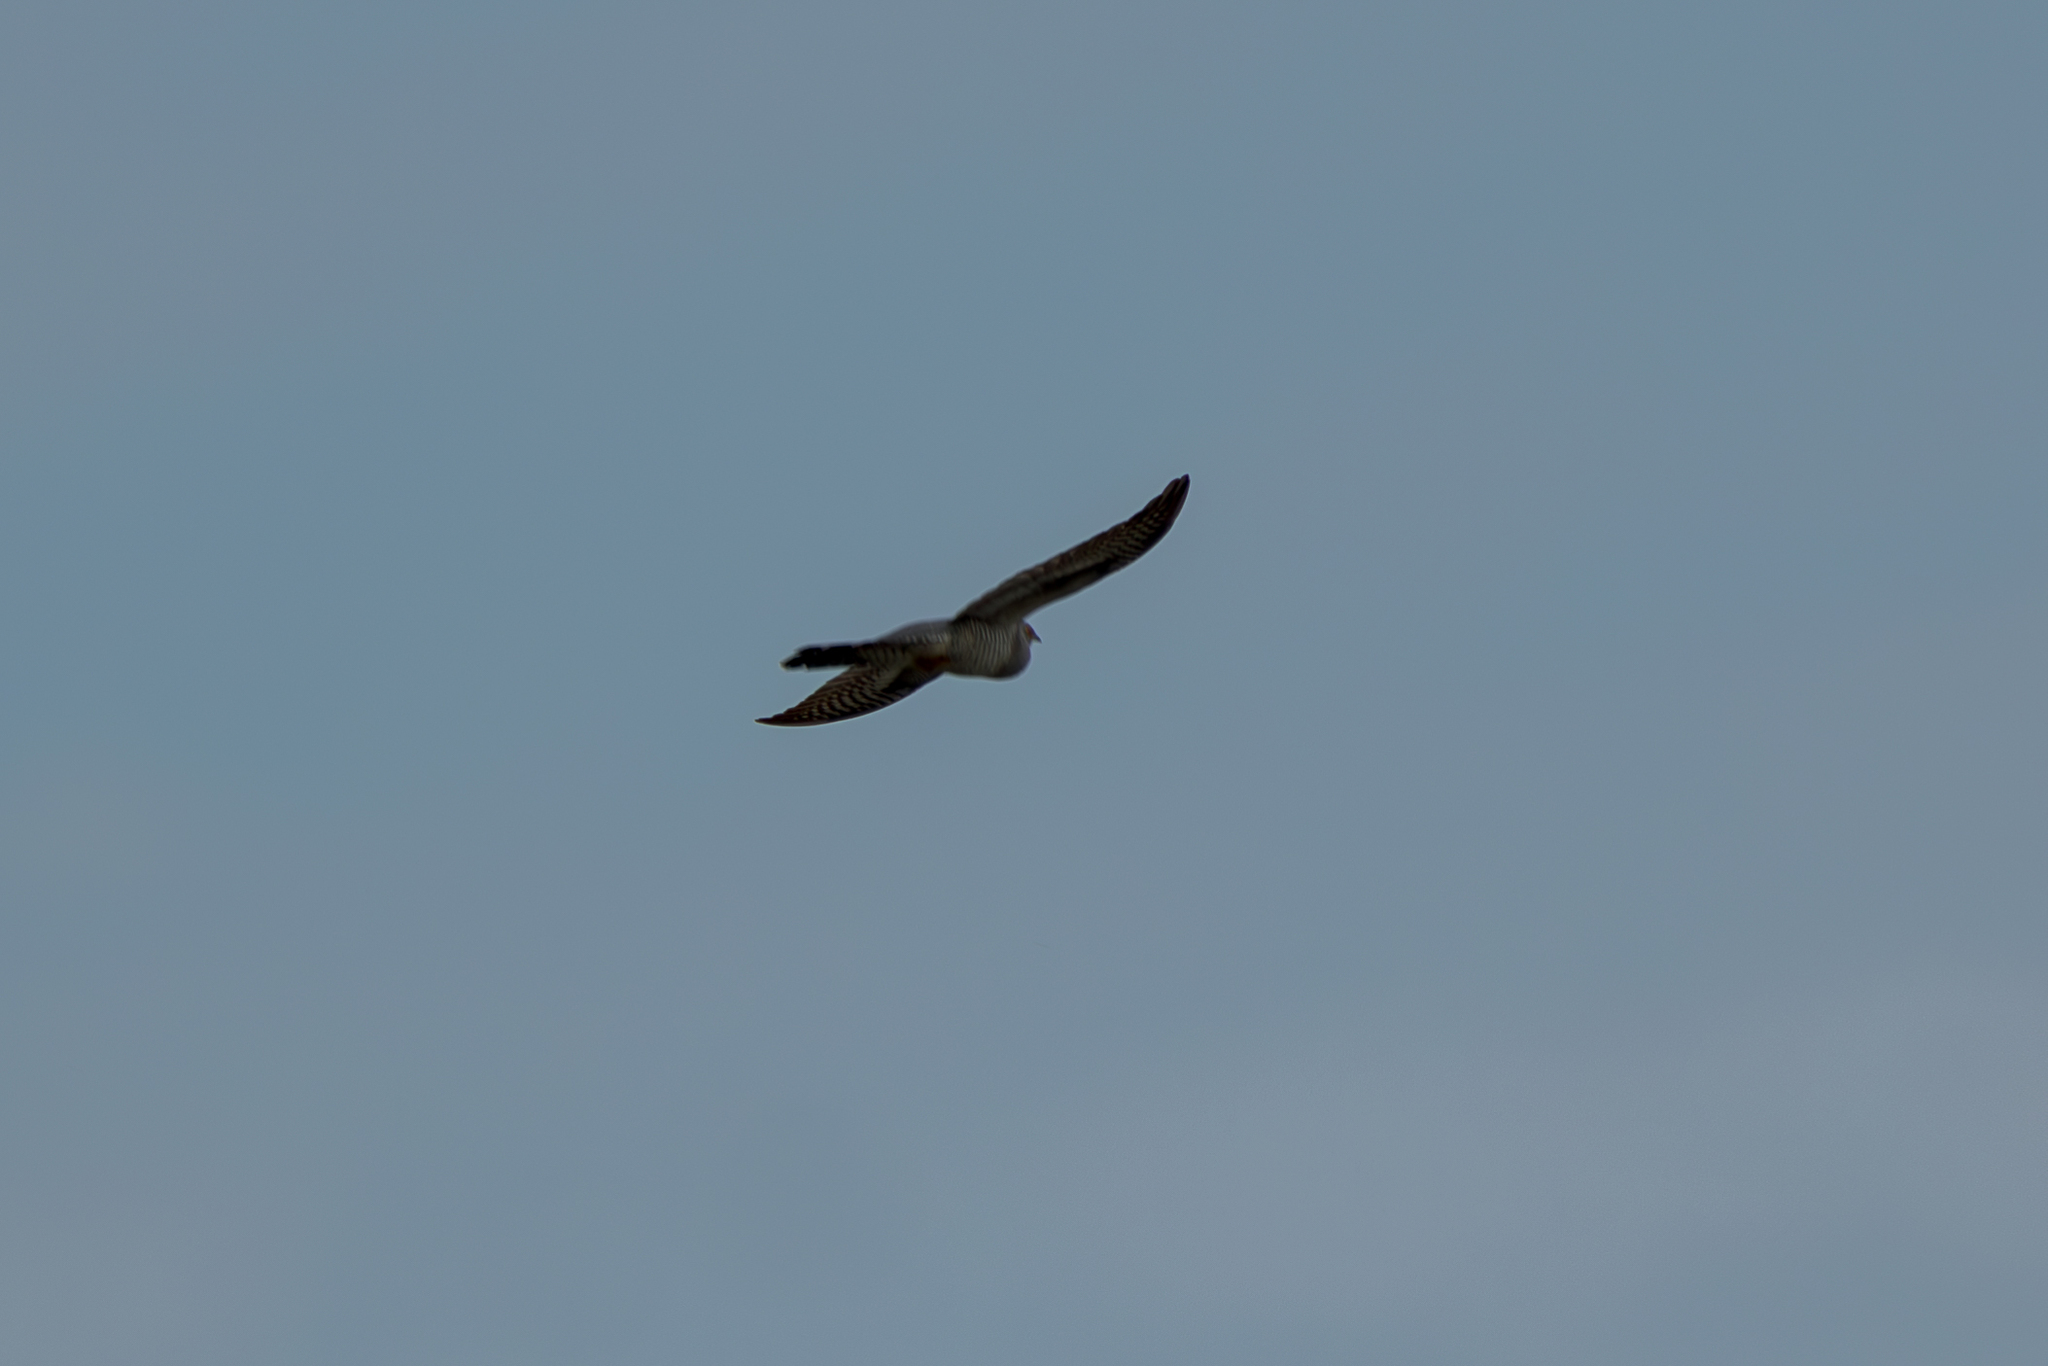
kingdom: Animalia
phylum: Chordata
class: Aves
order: Cuculiformes
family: Cuculidae
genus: Cuculus
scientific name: Cuculus canorus
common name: Common cuckoo
